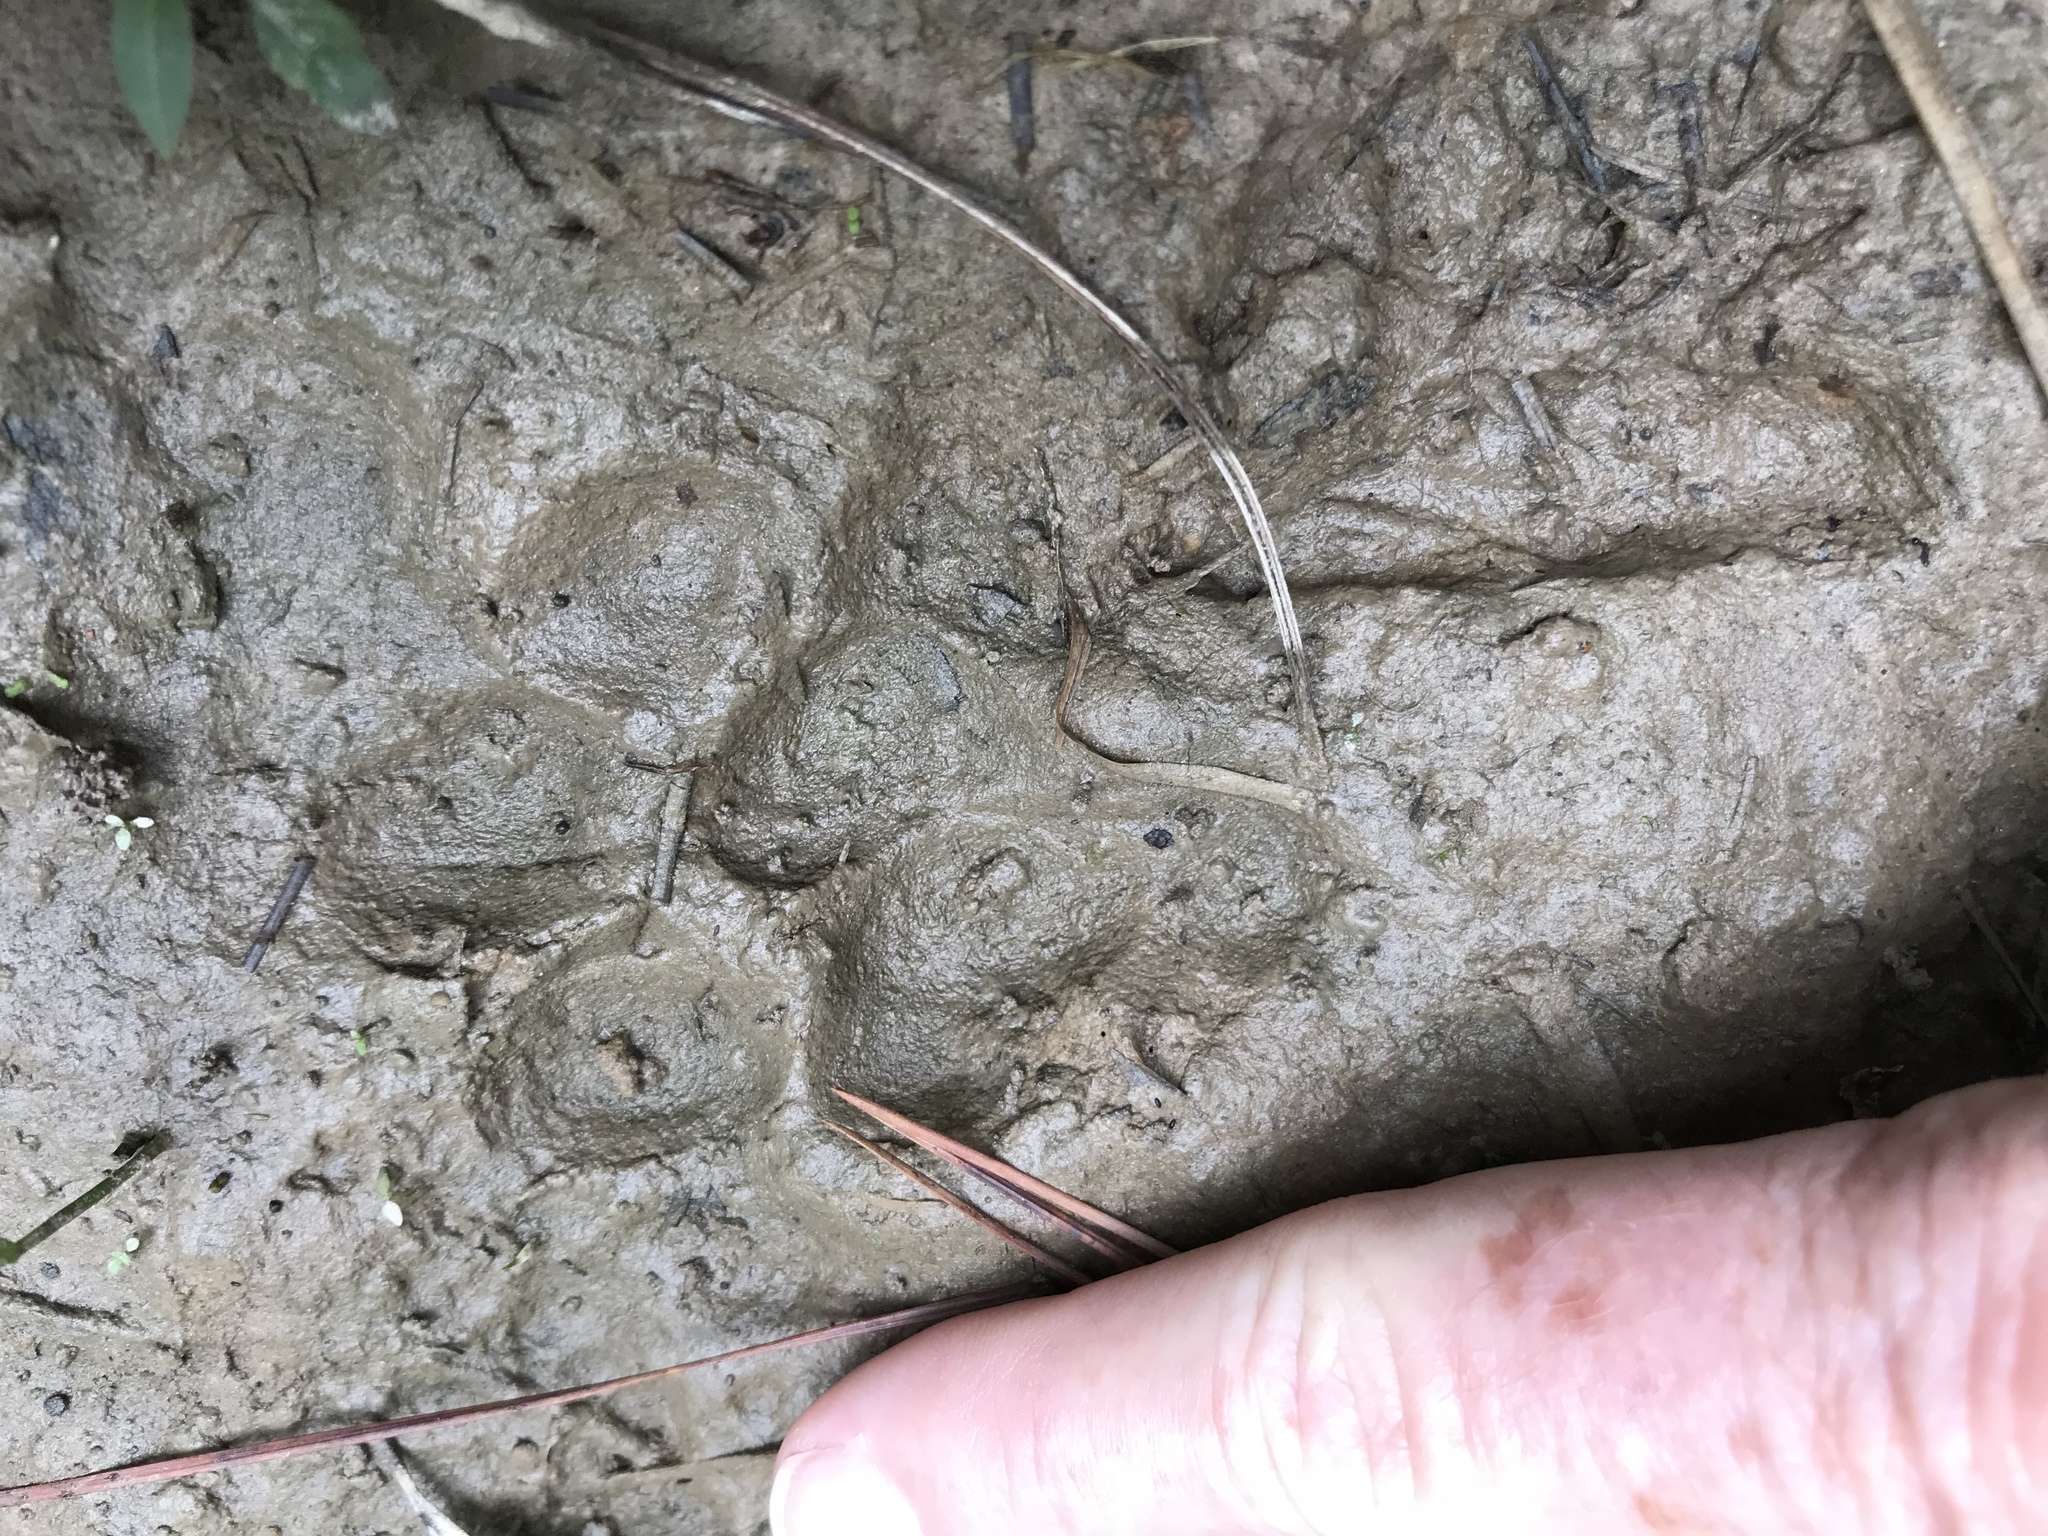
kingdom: Animalia
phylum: Chordata
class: Mammalia
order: Carnivora
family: Canidae
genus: Canis
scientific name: Canis latrans
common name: Coyote
